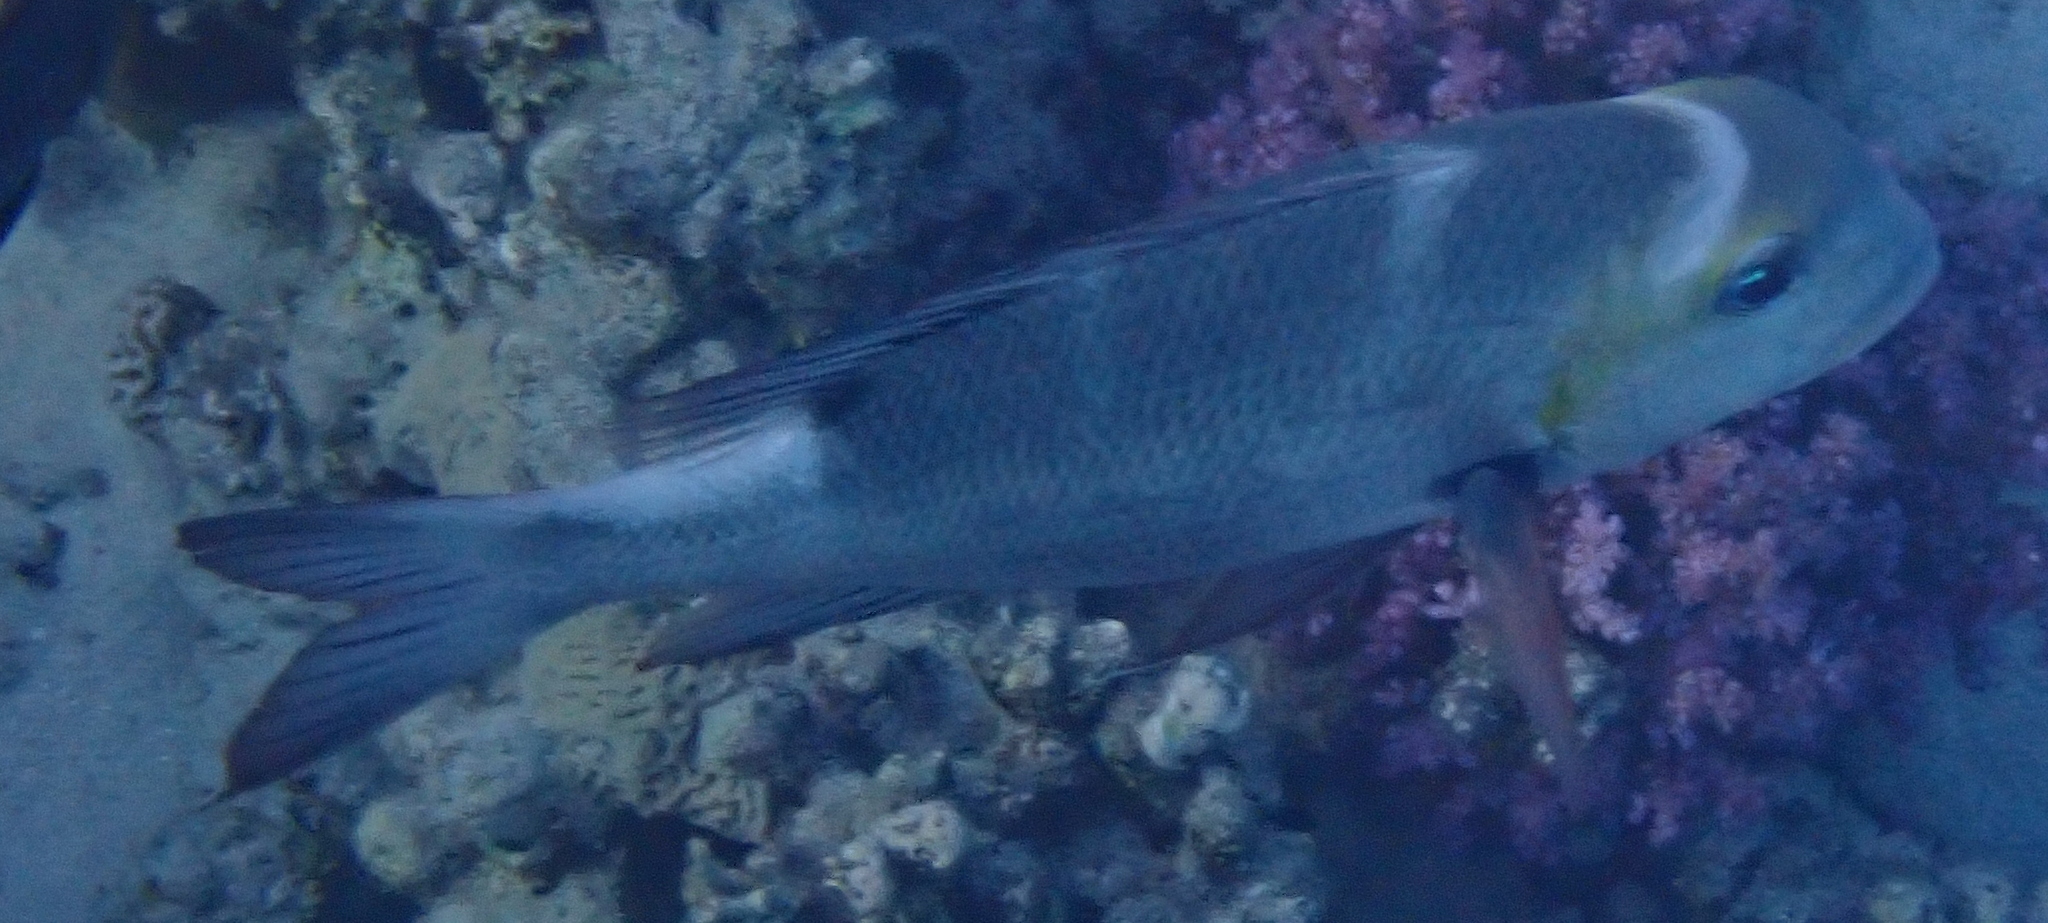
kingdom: Animalia
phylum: Chordata
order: Perciformes
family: Lethrinidae
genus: Monotaxis
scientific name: Monotaxis grandoculis
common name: Bigeye emperor
